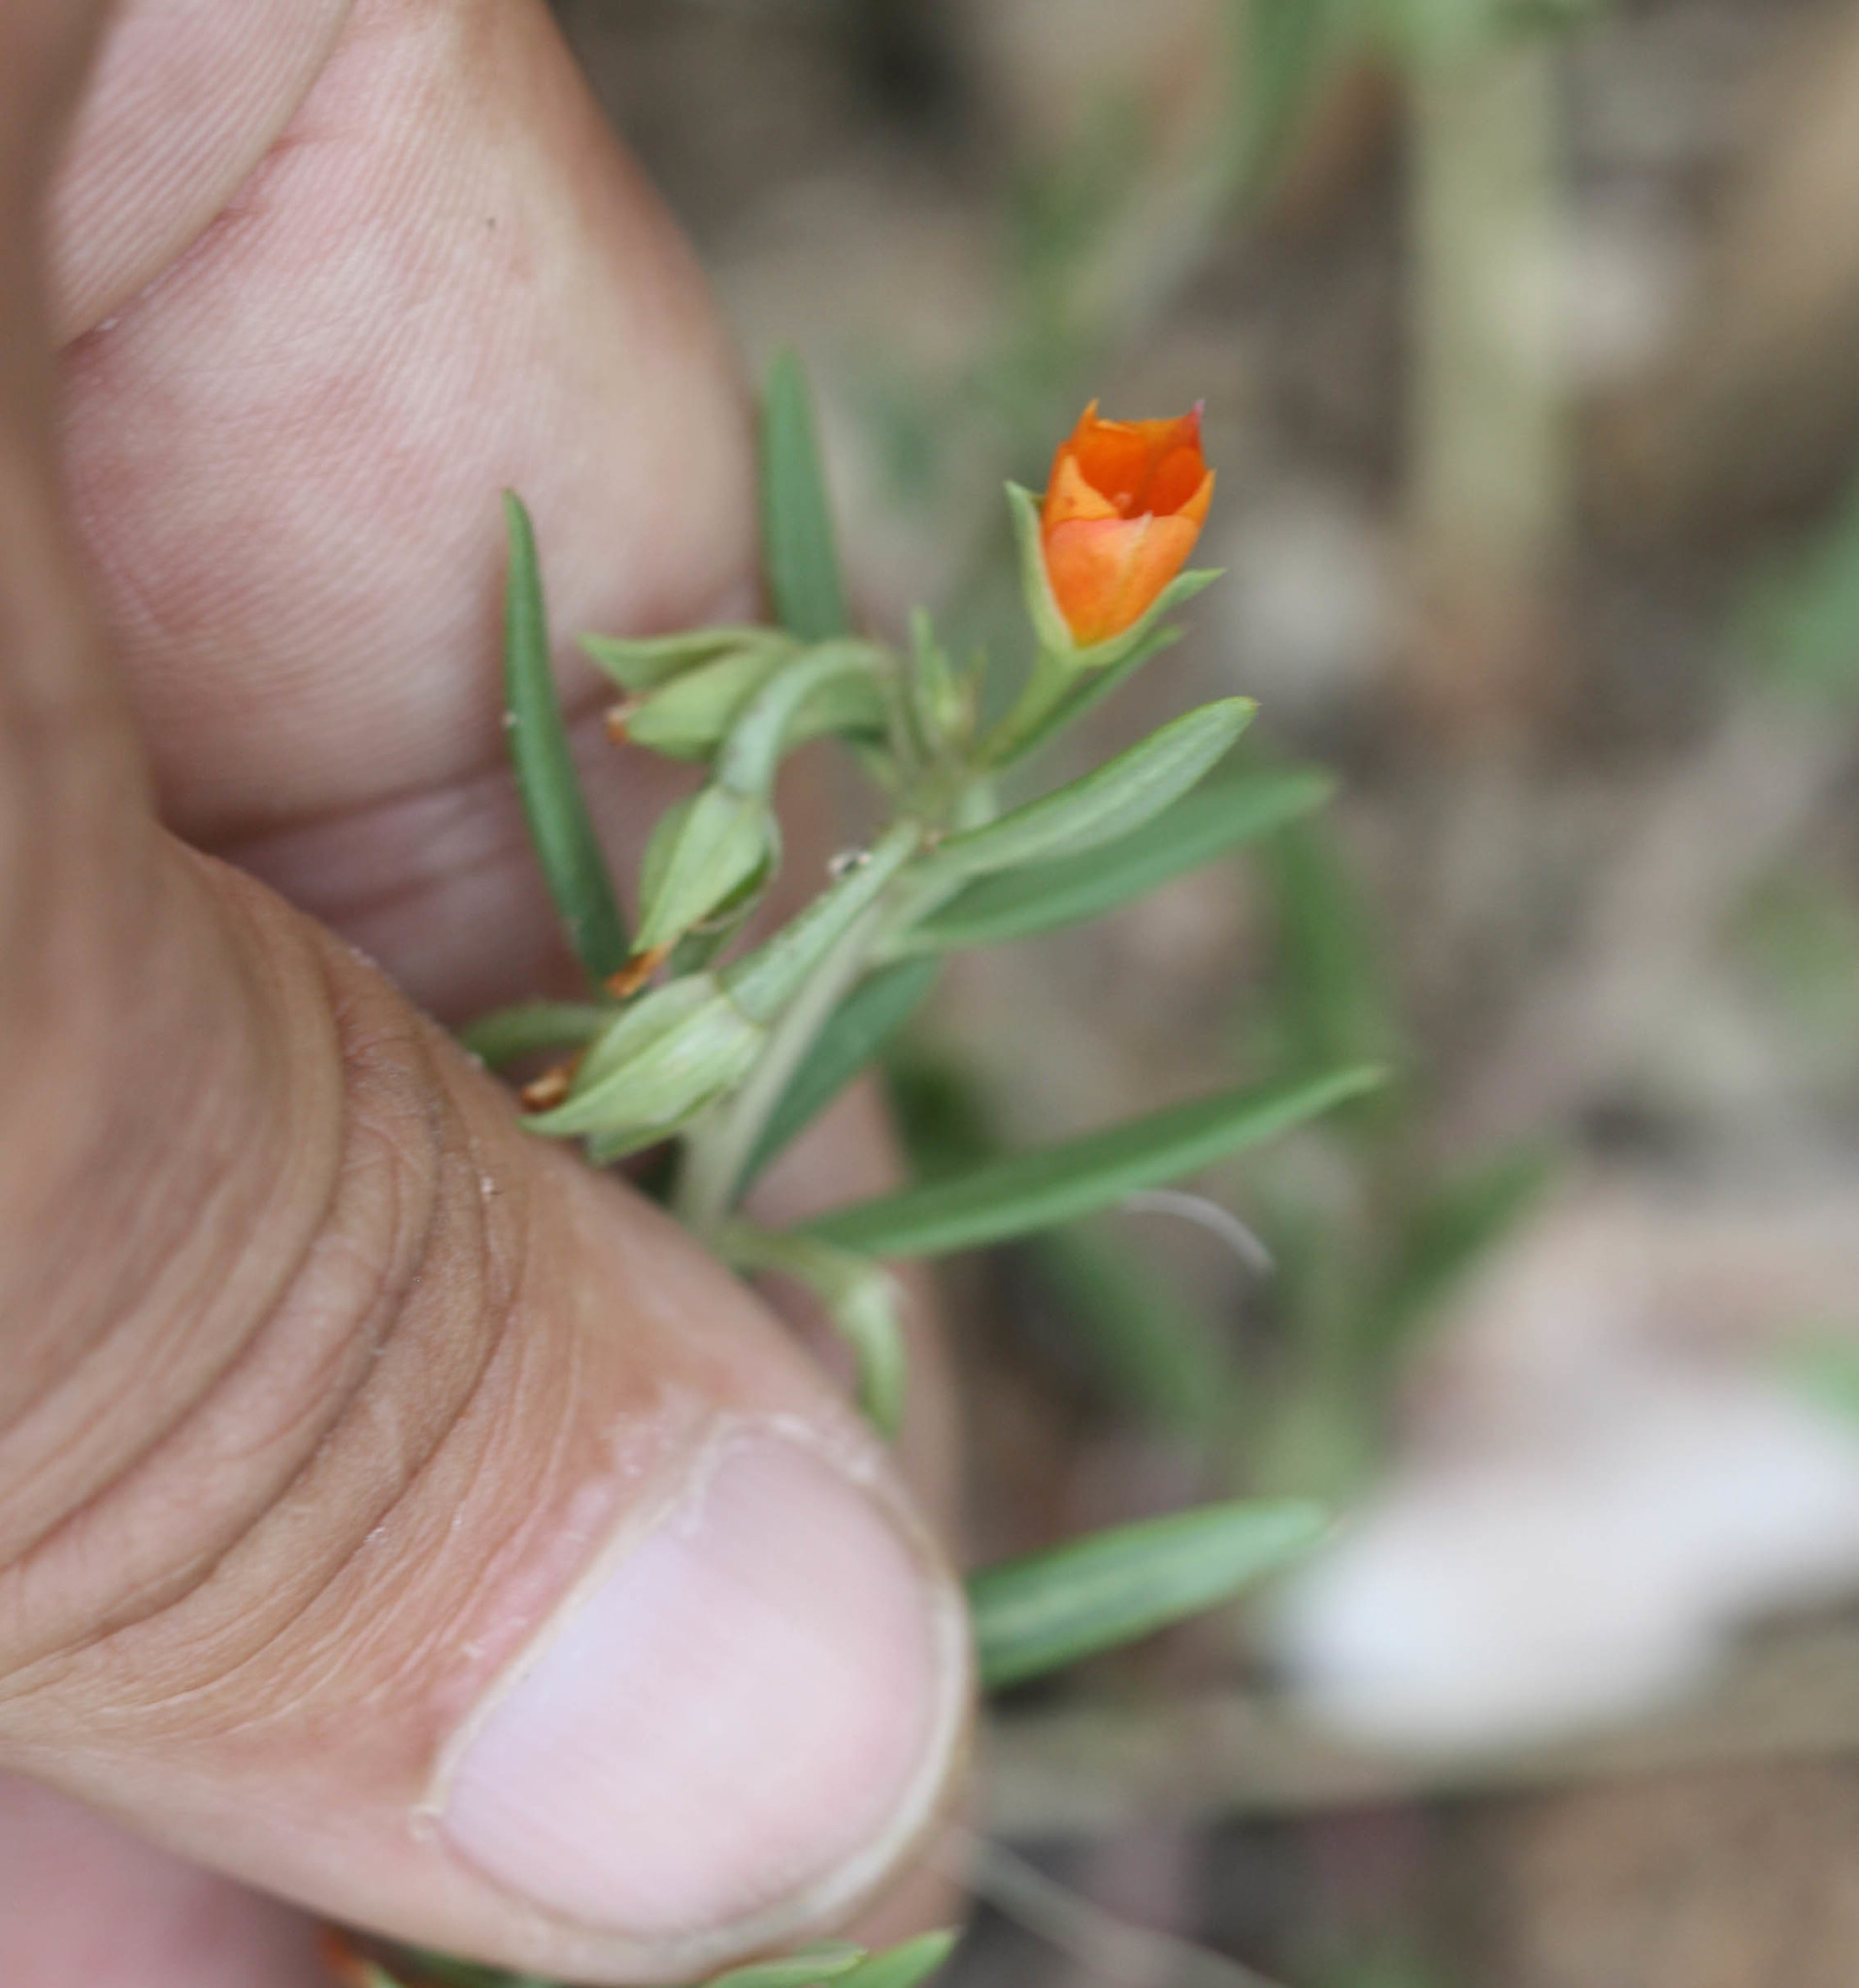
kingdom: Plantae
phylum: Tracheophyta
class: Magnoliopsida
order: Caryophyllales
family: Montiaceae
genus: Phemeranthus
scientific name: Phemeranthus aurantiacus
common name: Orange fameflower
